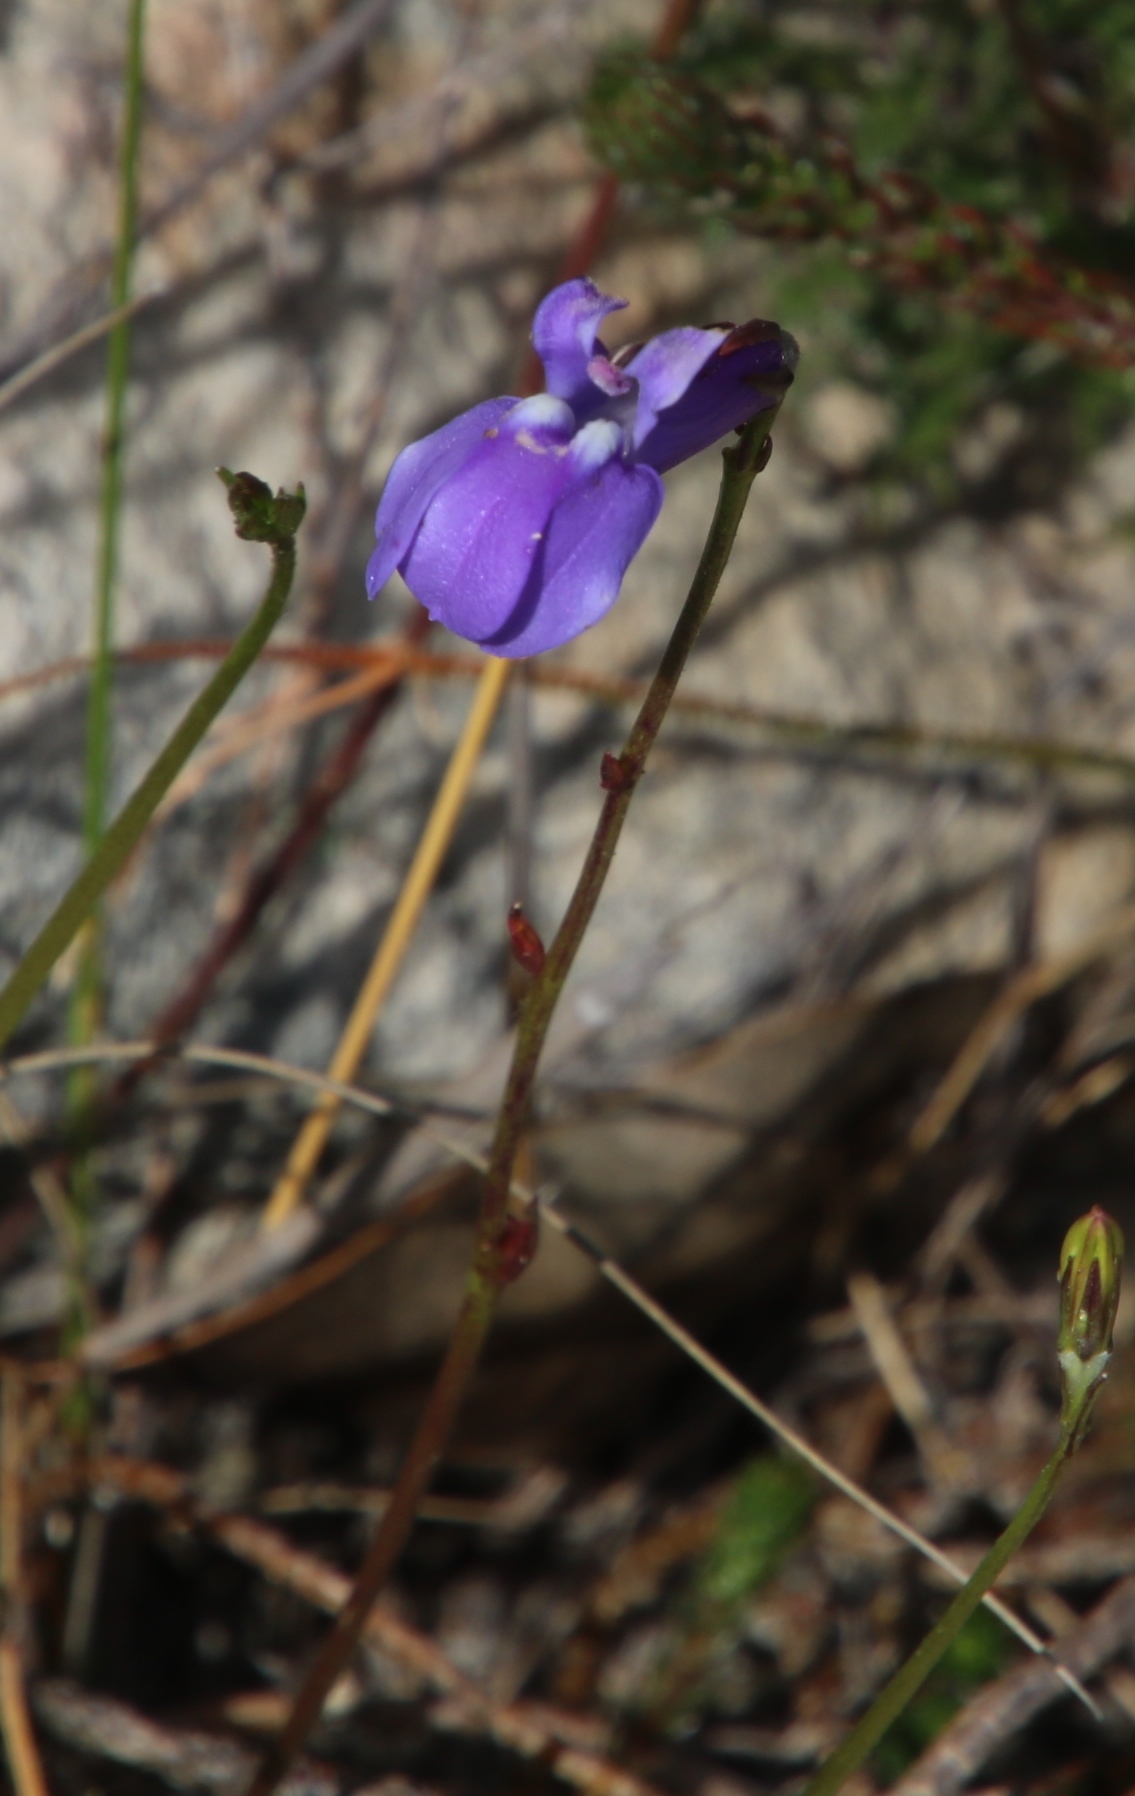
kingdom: Plantae
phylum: Tracheophyta
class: Magnoliopsida
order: Asterales
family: Campanulaceae
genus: Lobelia
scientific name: Lobelia coronopifolia
